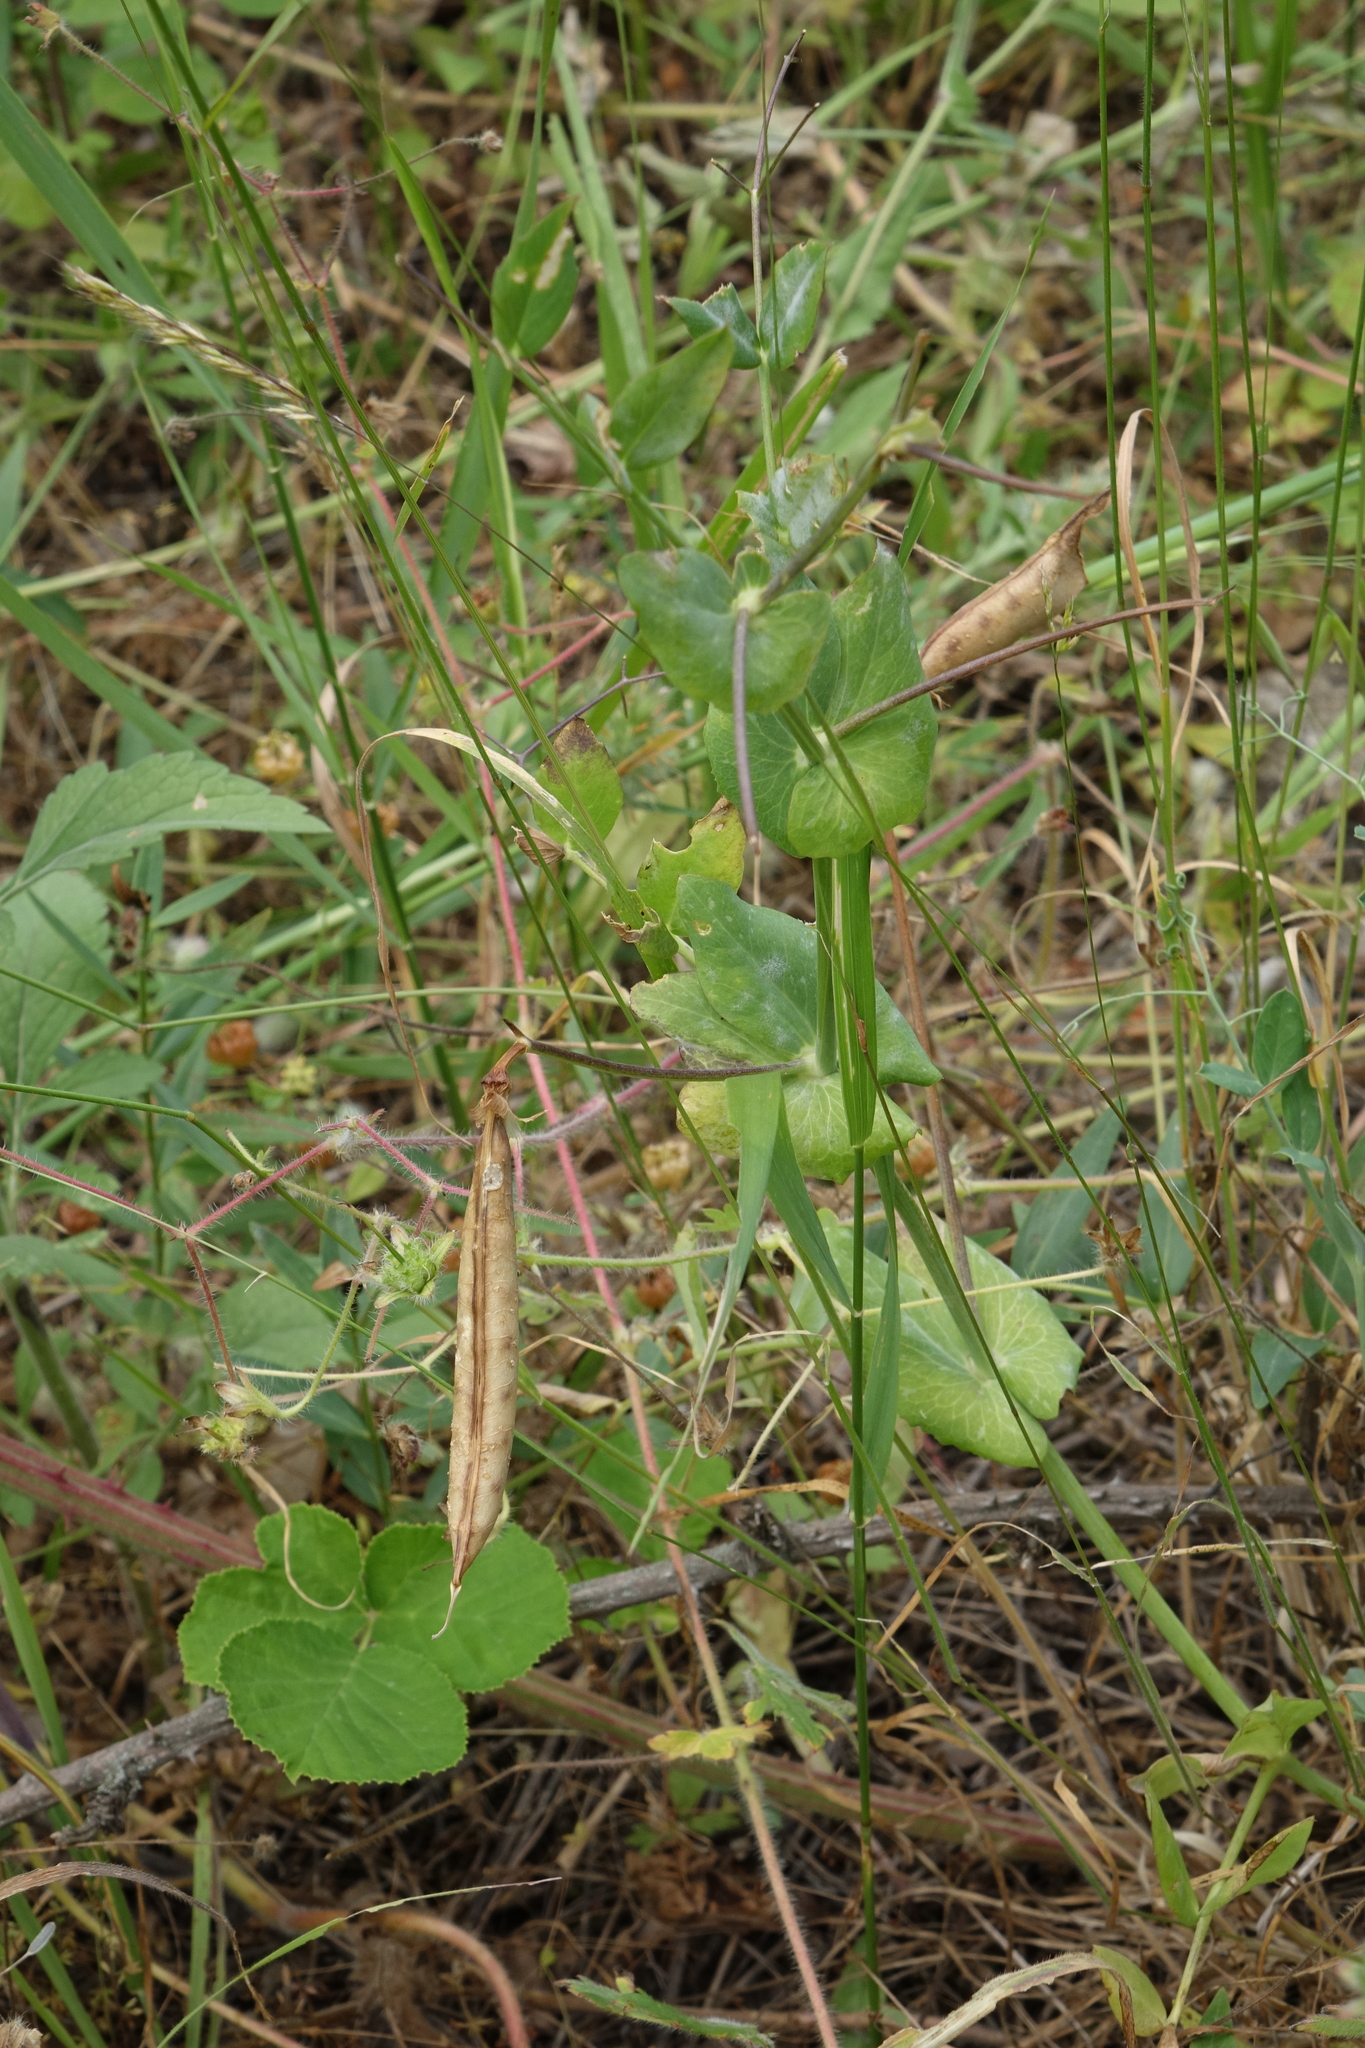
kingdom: Plantae
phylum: Tracheophyta
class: Magnoliopsida
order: Fabales
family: Fabaceae
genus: Lathyrus
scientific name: Lathyrus oleraceus
